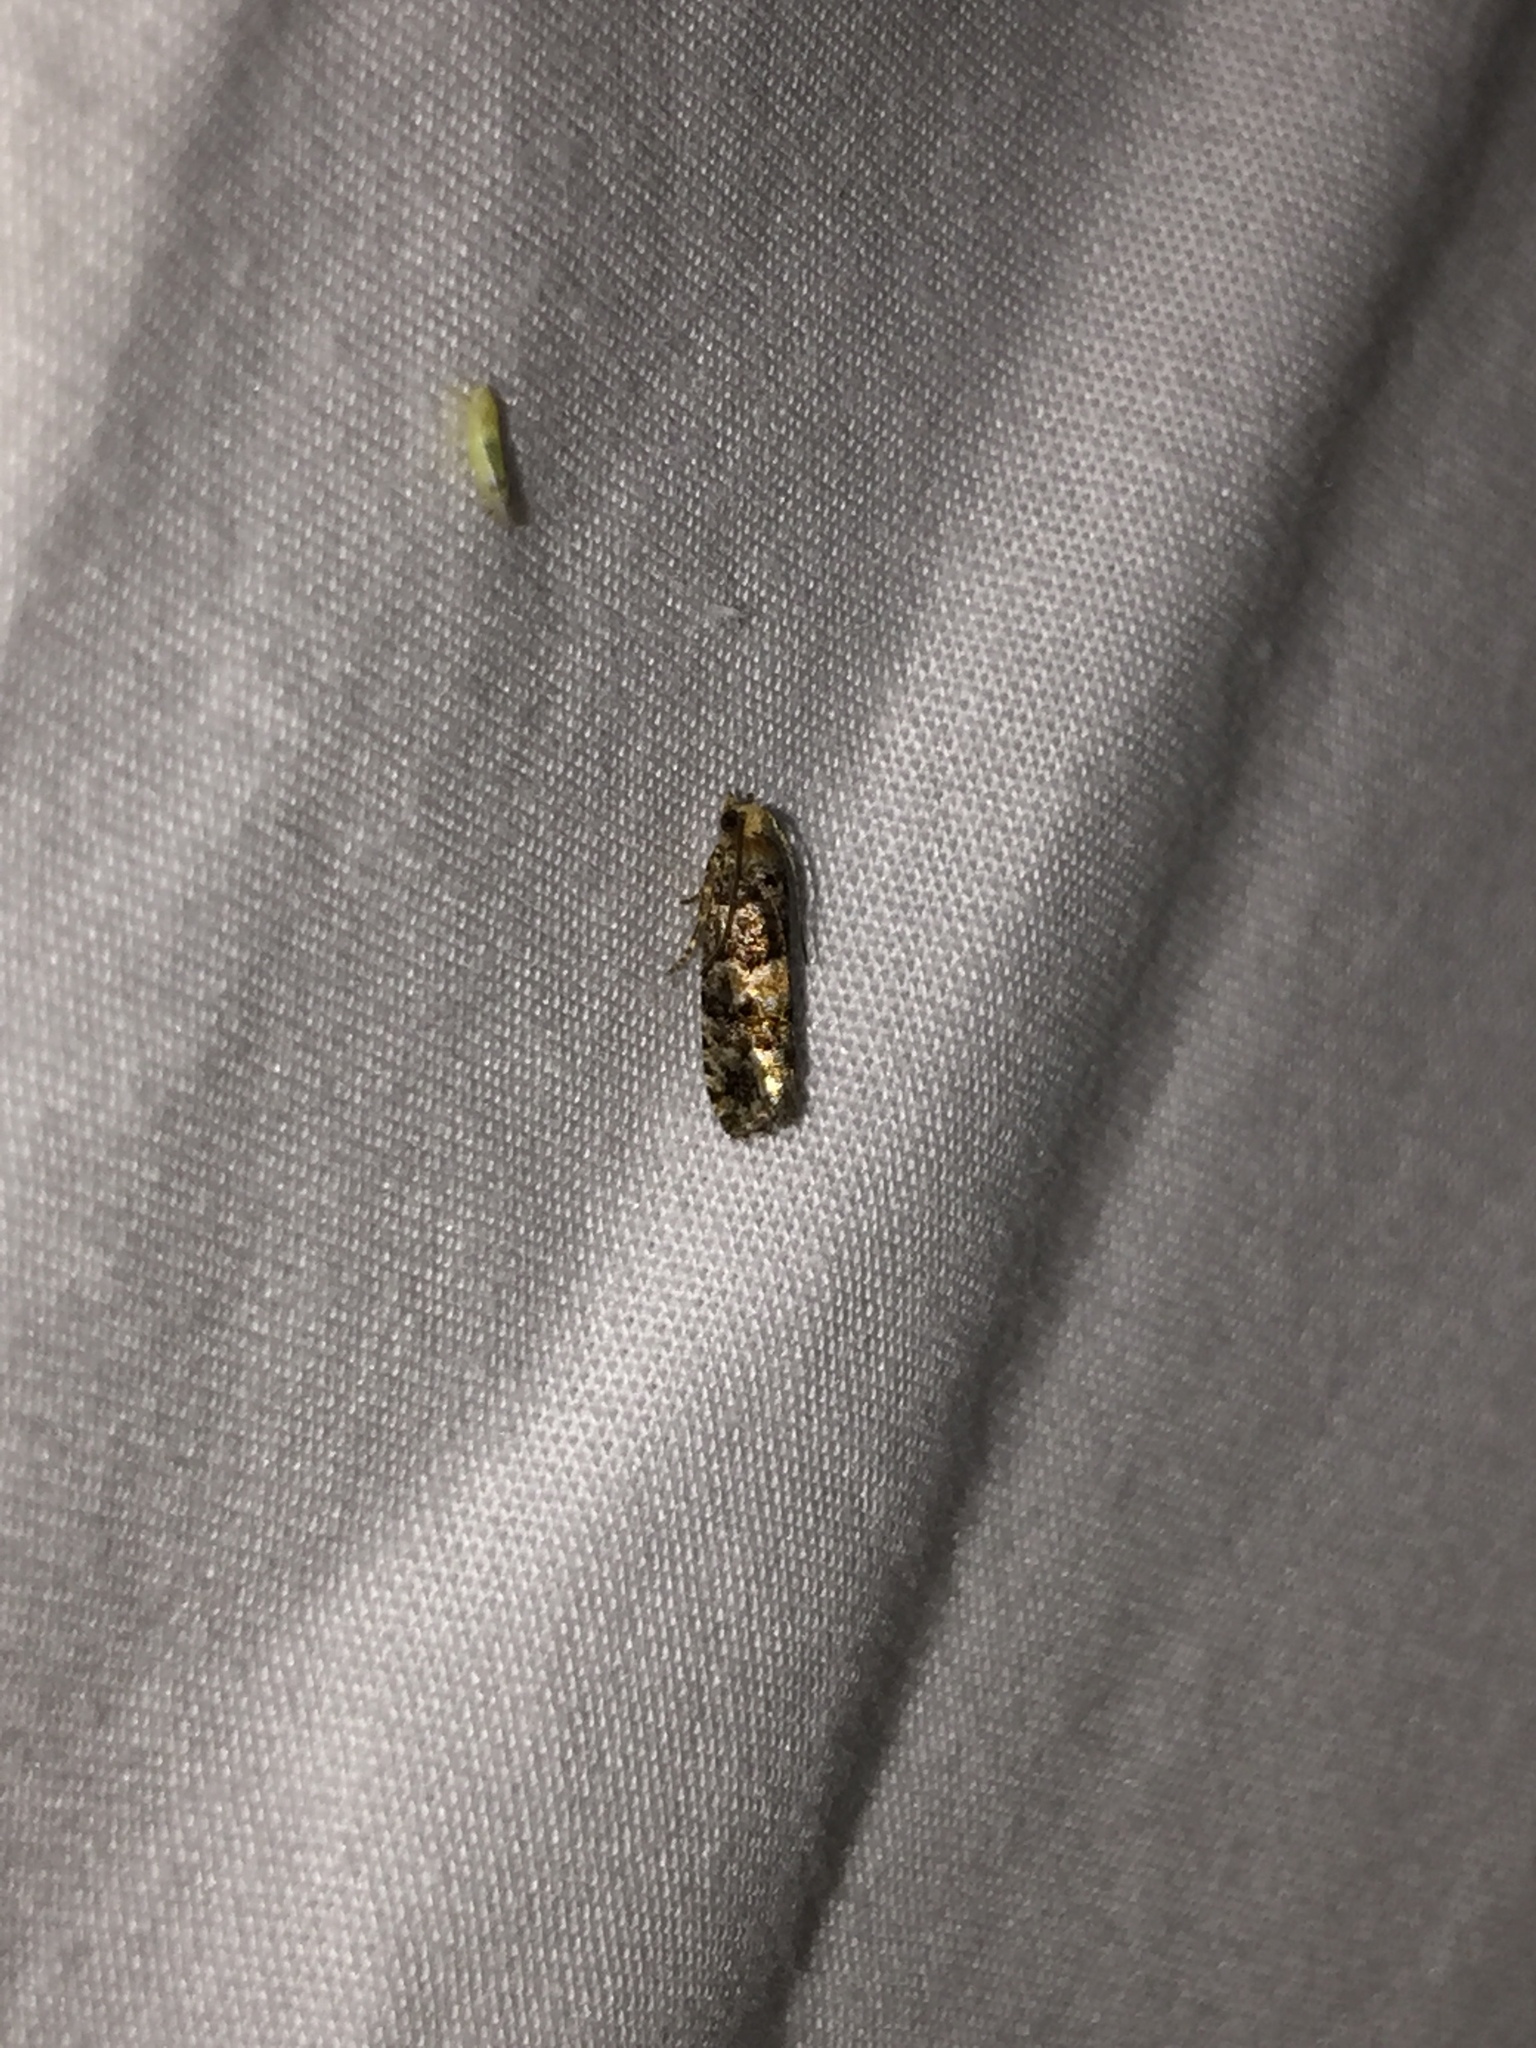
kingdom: Animalia
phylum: Arthropoda
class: Insecta
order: Lepidoptera
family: Tortricidae
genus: Eucopina
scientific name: Eucopina tocullionana
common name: White pinecone borer moth
